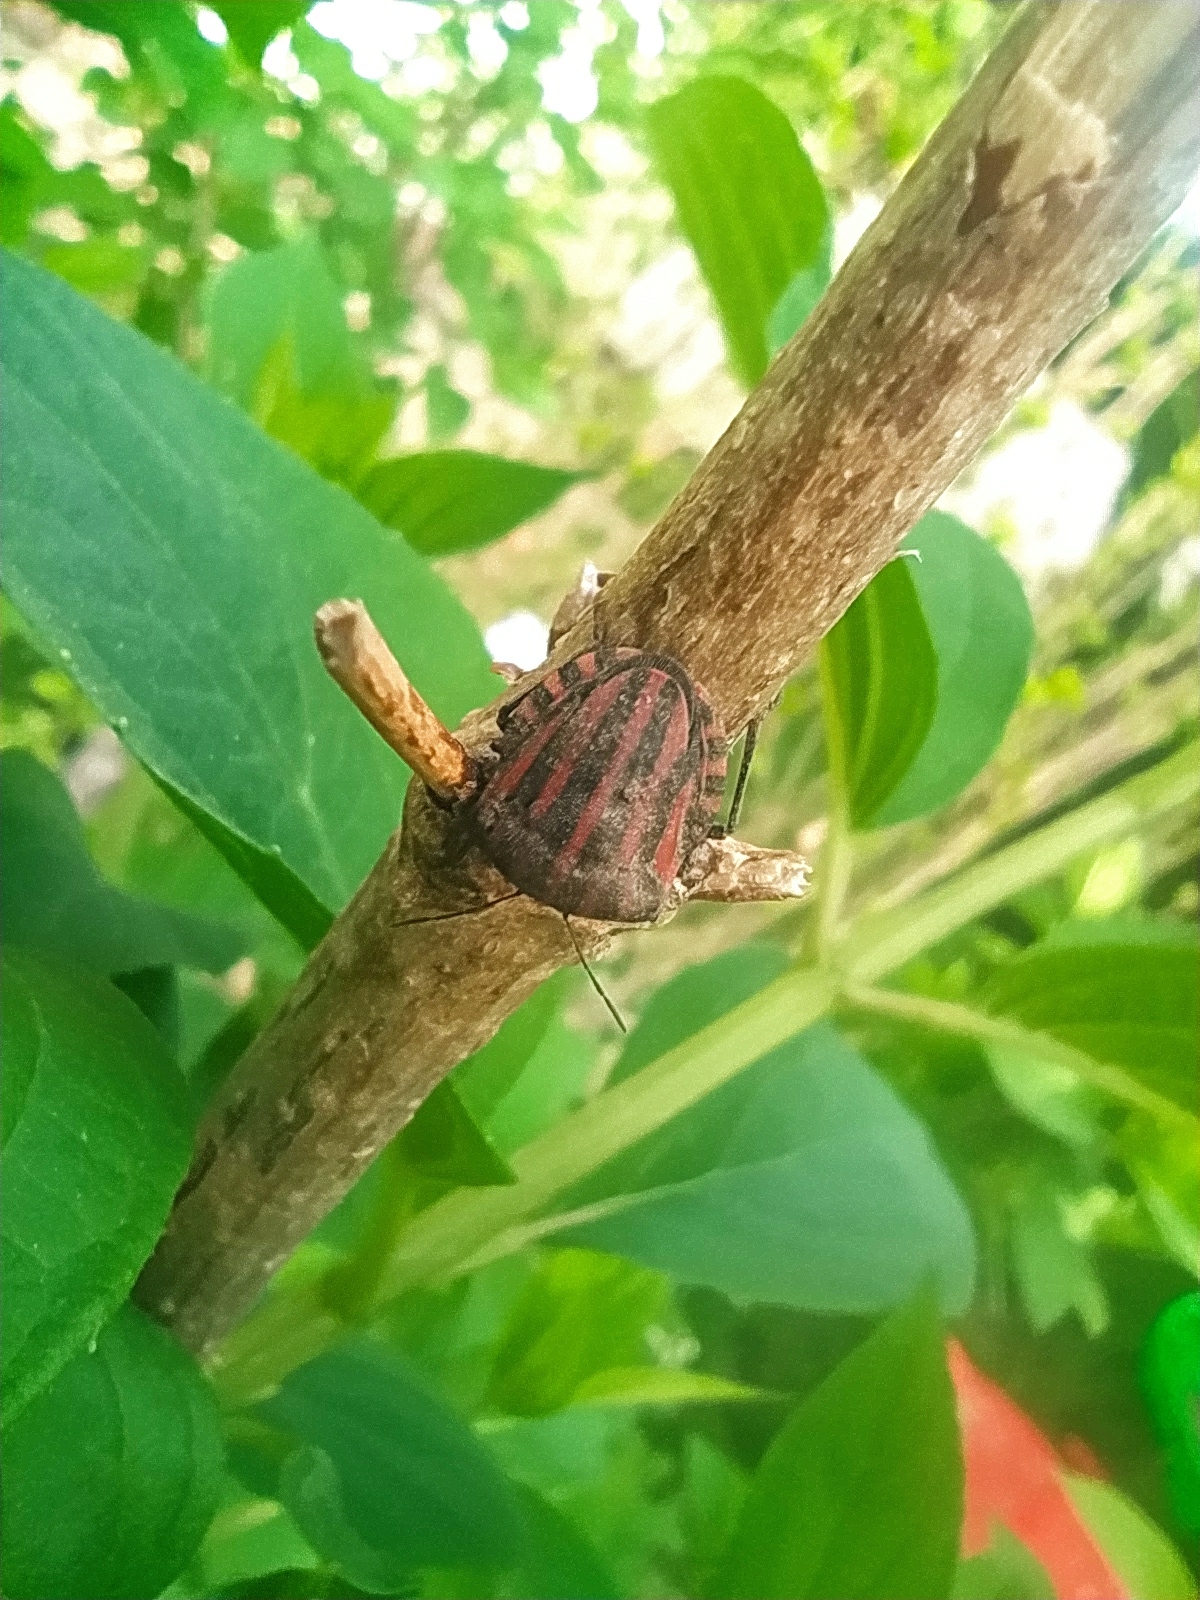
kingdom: Animalia
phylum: Arthropoda
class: Insecta
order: Hemiptera
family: Pentatomidae
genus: Graphosoma
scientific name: Graphosoma italicum
